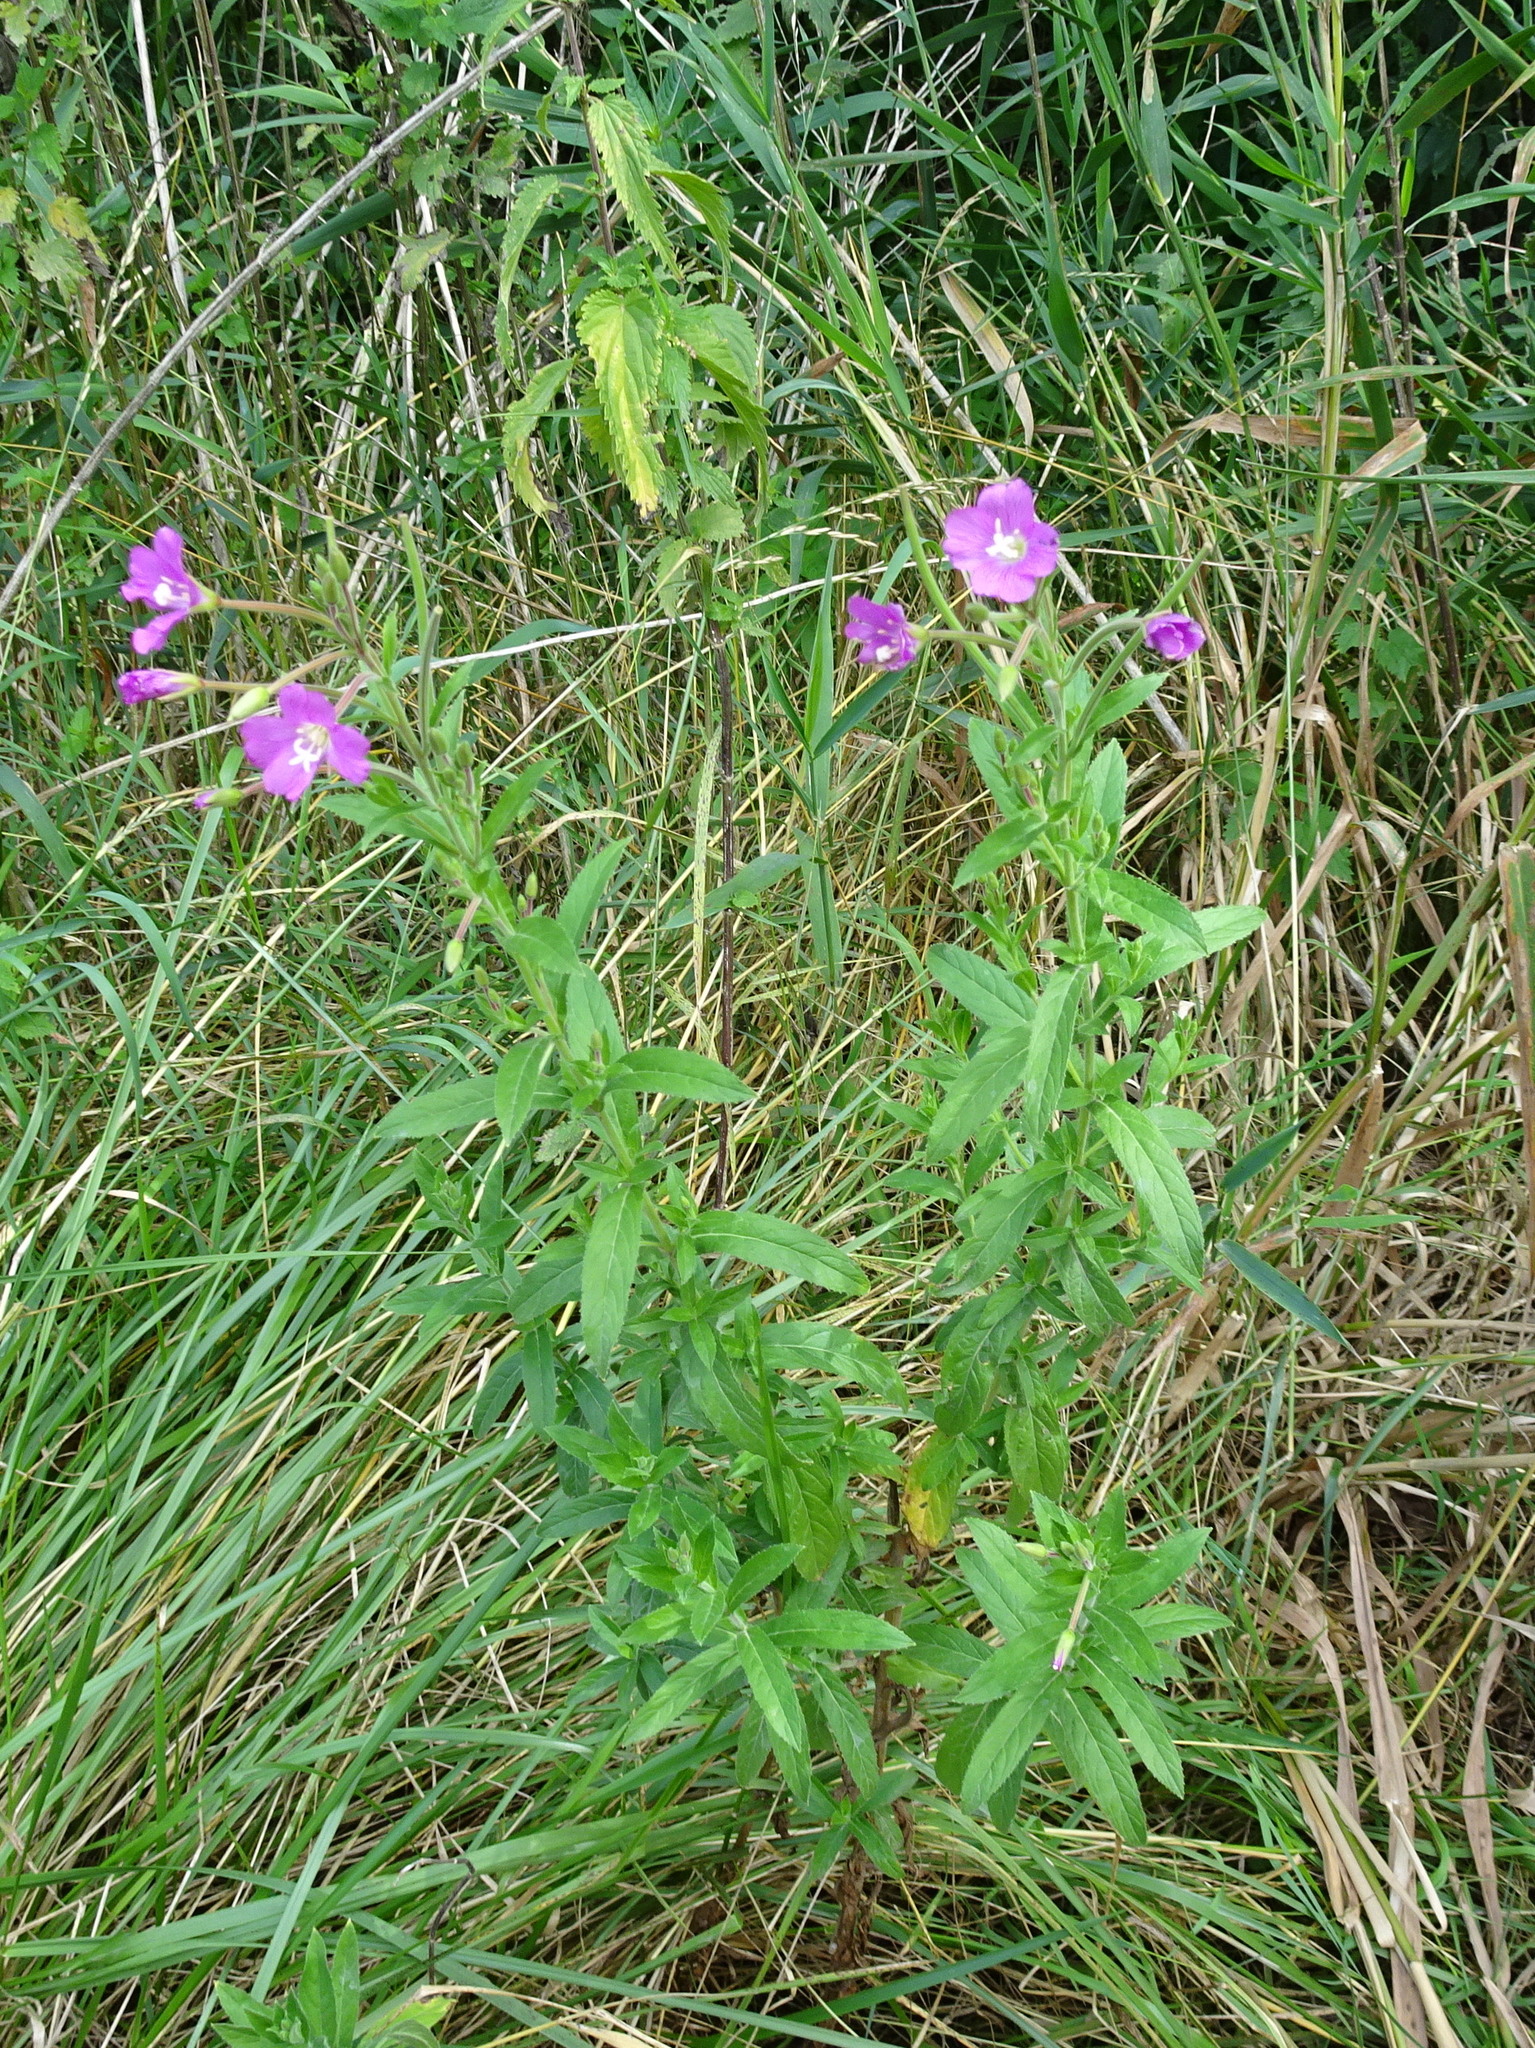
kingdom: Plantae
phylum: Tracheophyta
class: Magnoliopsida
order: Myrtales
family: Onagraceae
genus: Epilobium
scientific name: Epilobium hirsutum
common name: Great willowherb
